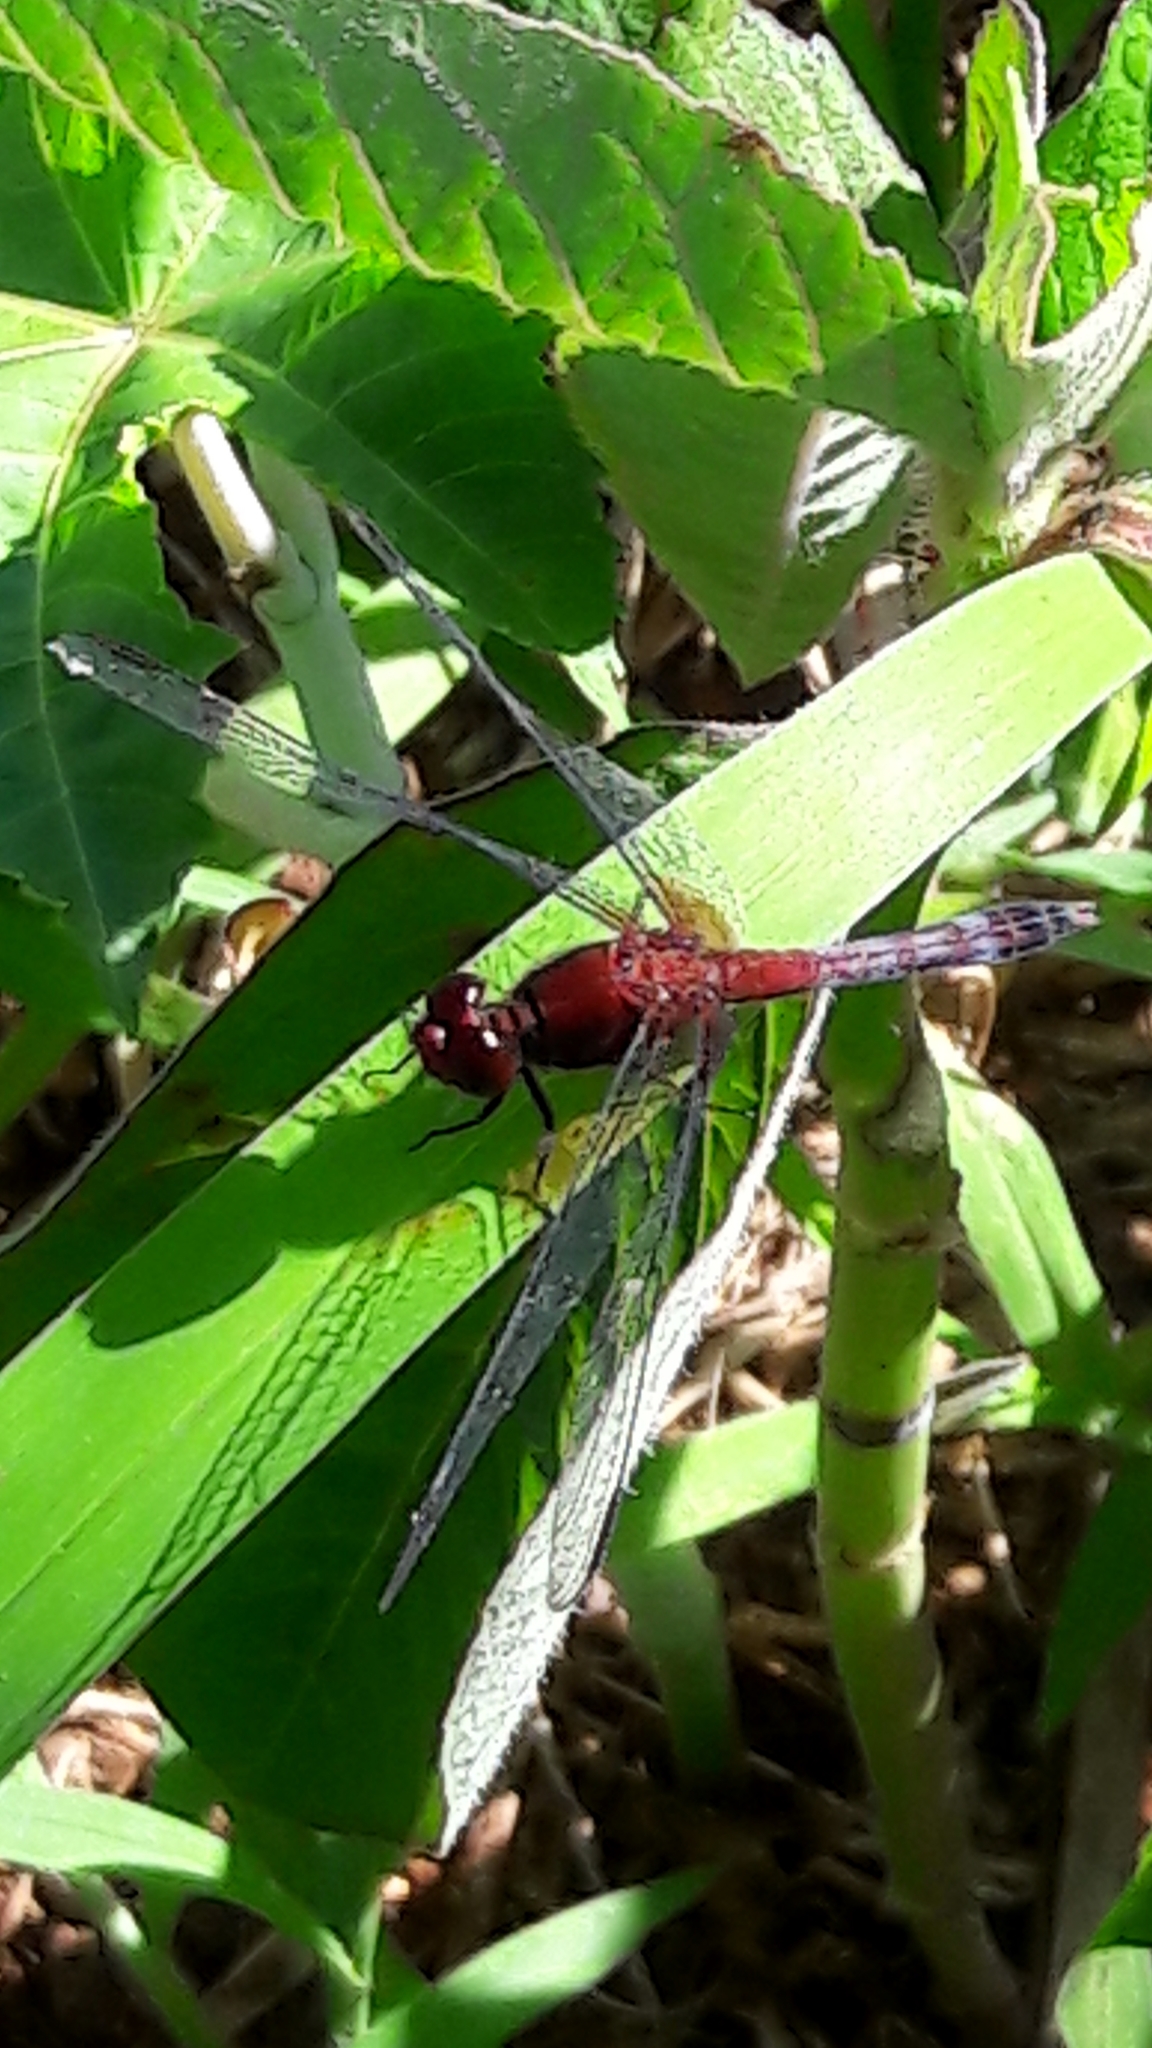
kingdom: Animalia
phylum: Arthropoda
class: Insecta
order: Odonata
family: Libellulidae
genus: Erythrodiplax
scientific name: Erythrodiplax fusca
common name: Red-faced dragonlet
